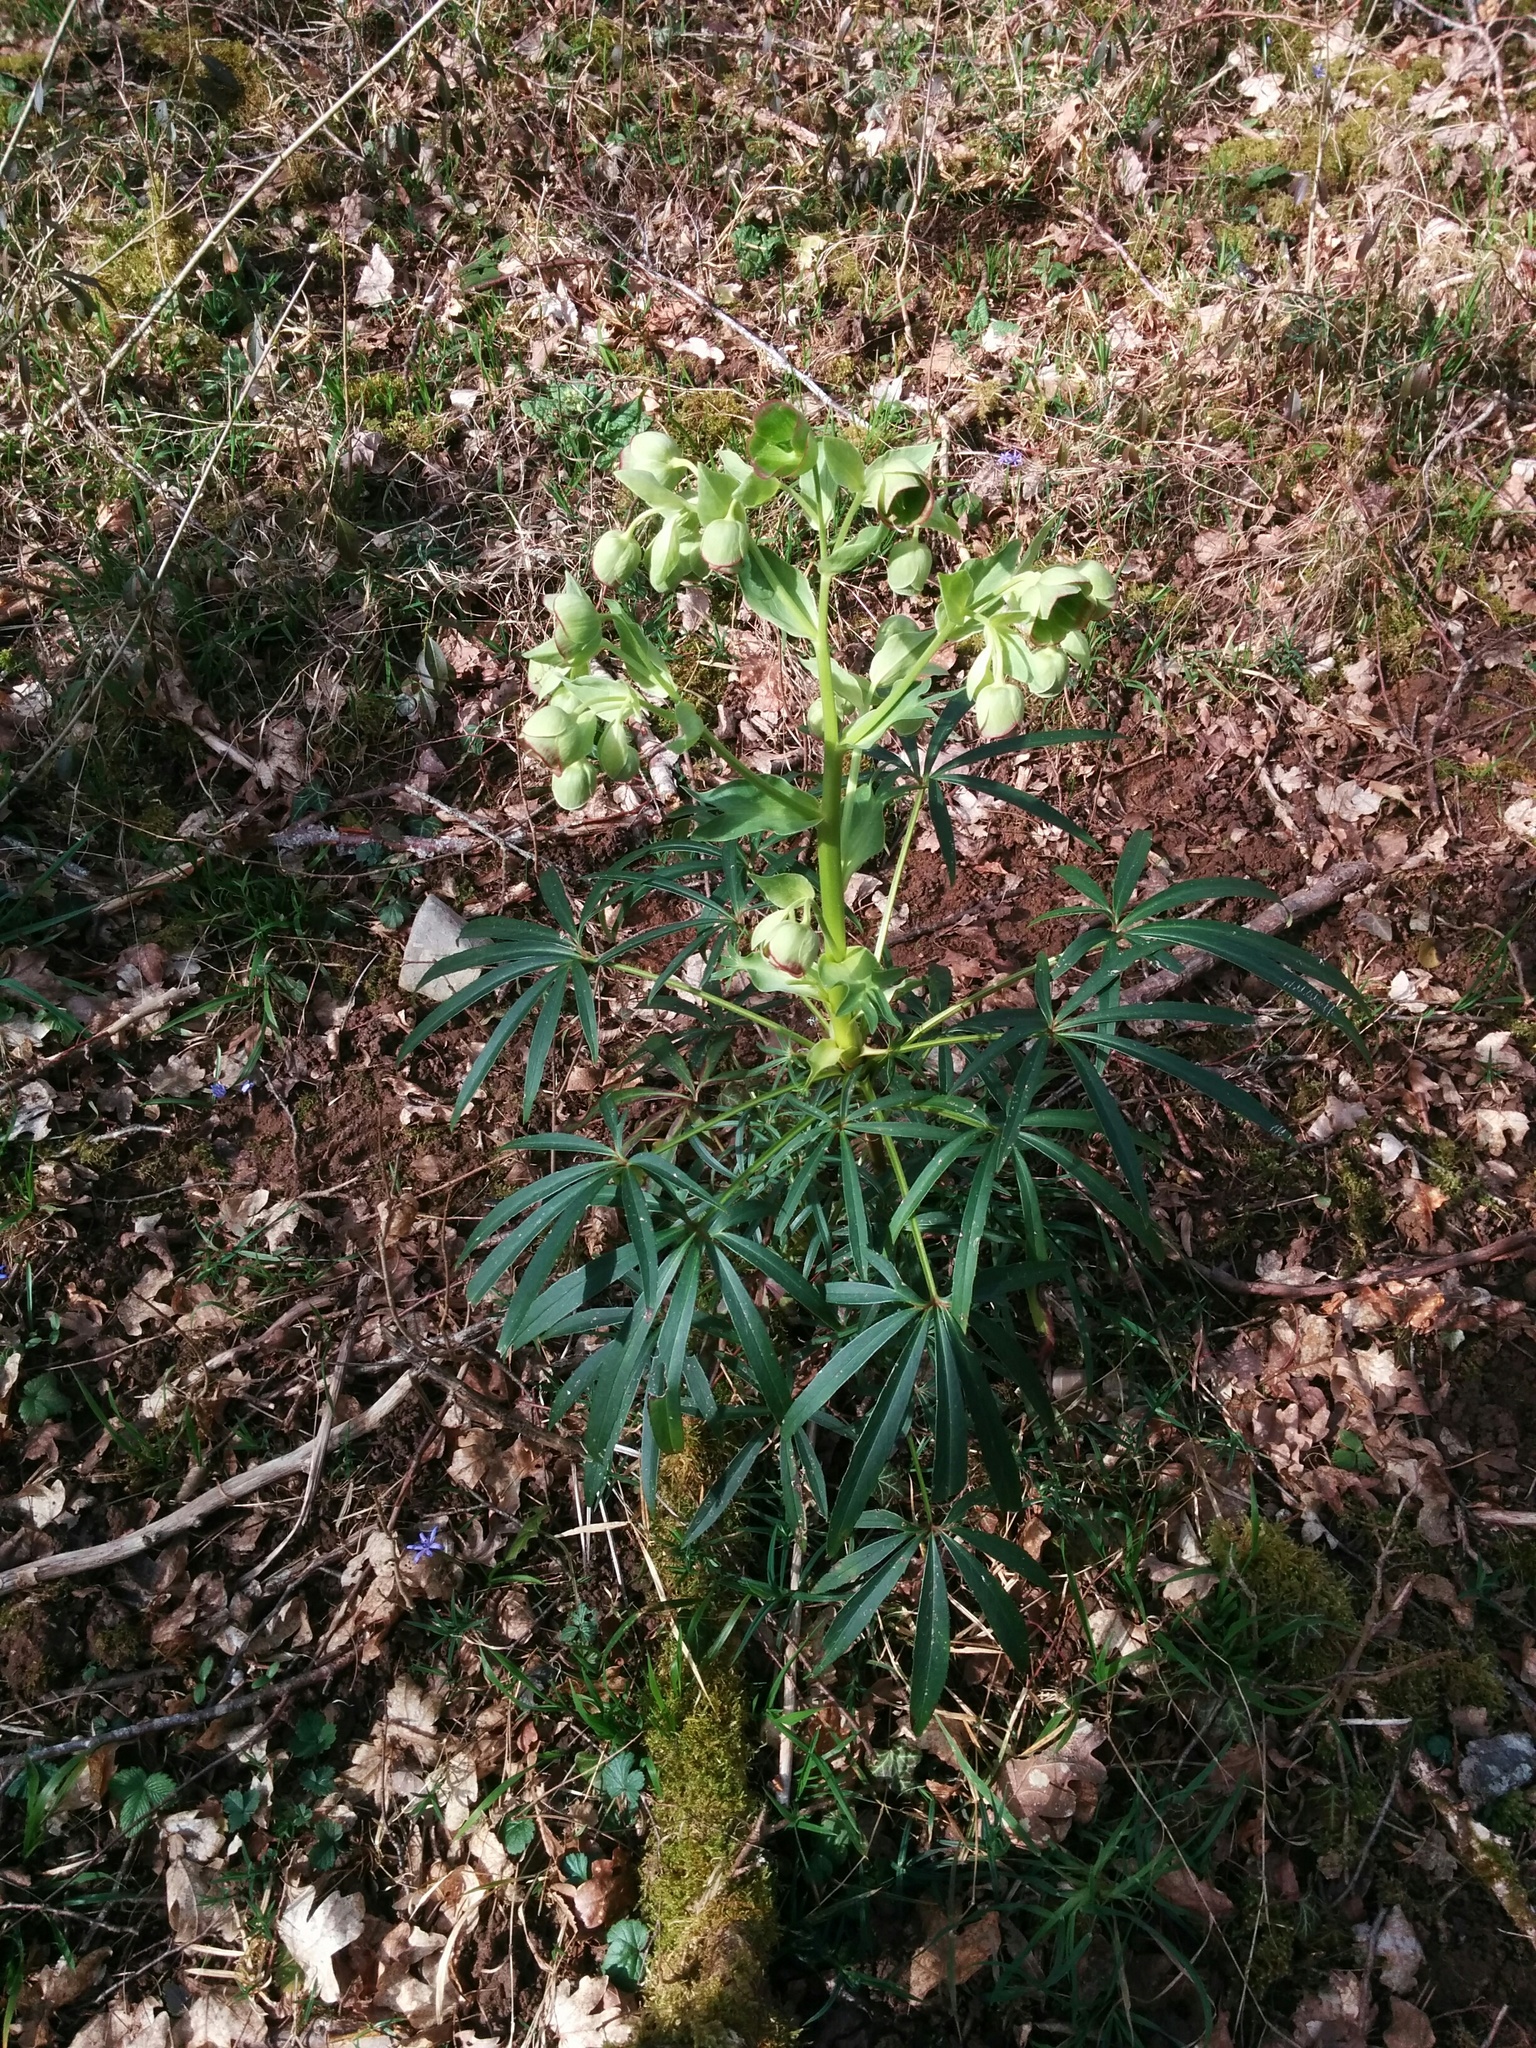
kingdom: Plantae
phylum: Tracheophyta
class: Magnoliopsida
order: Ranunculales
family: Ranunculaceae
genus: Helleborus
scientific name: Helleborus foetidus
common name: Stinking hellebore
